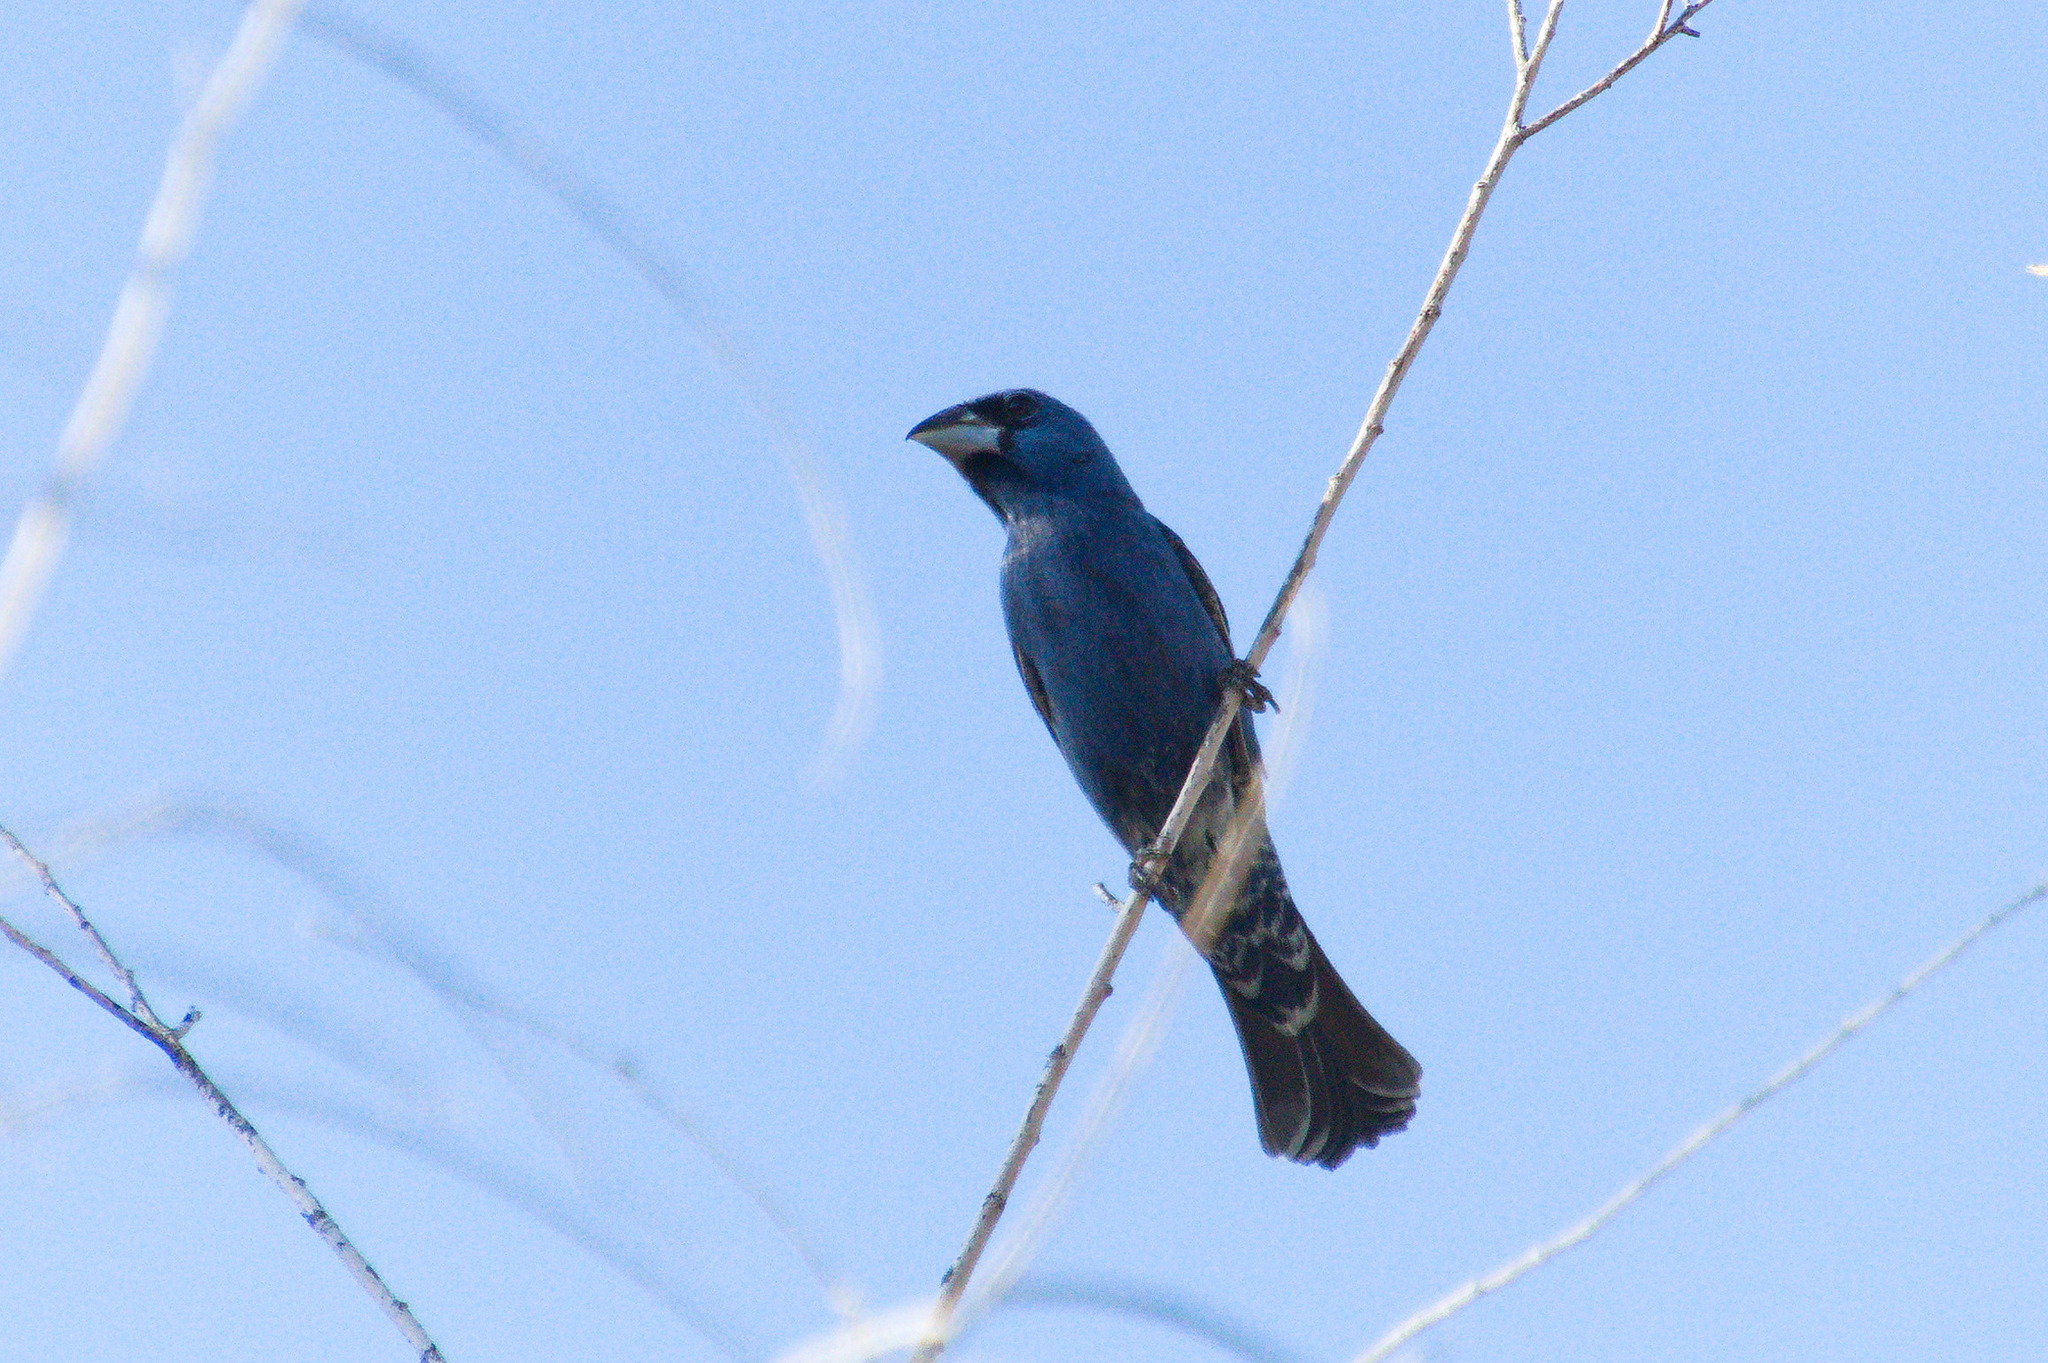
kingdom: Animalia
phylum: Chordata
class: Aves
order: Passeriformes
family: Cardinalidae
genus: Passerina
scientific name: Passerina caerulea
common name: Blue grosbeak
